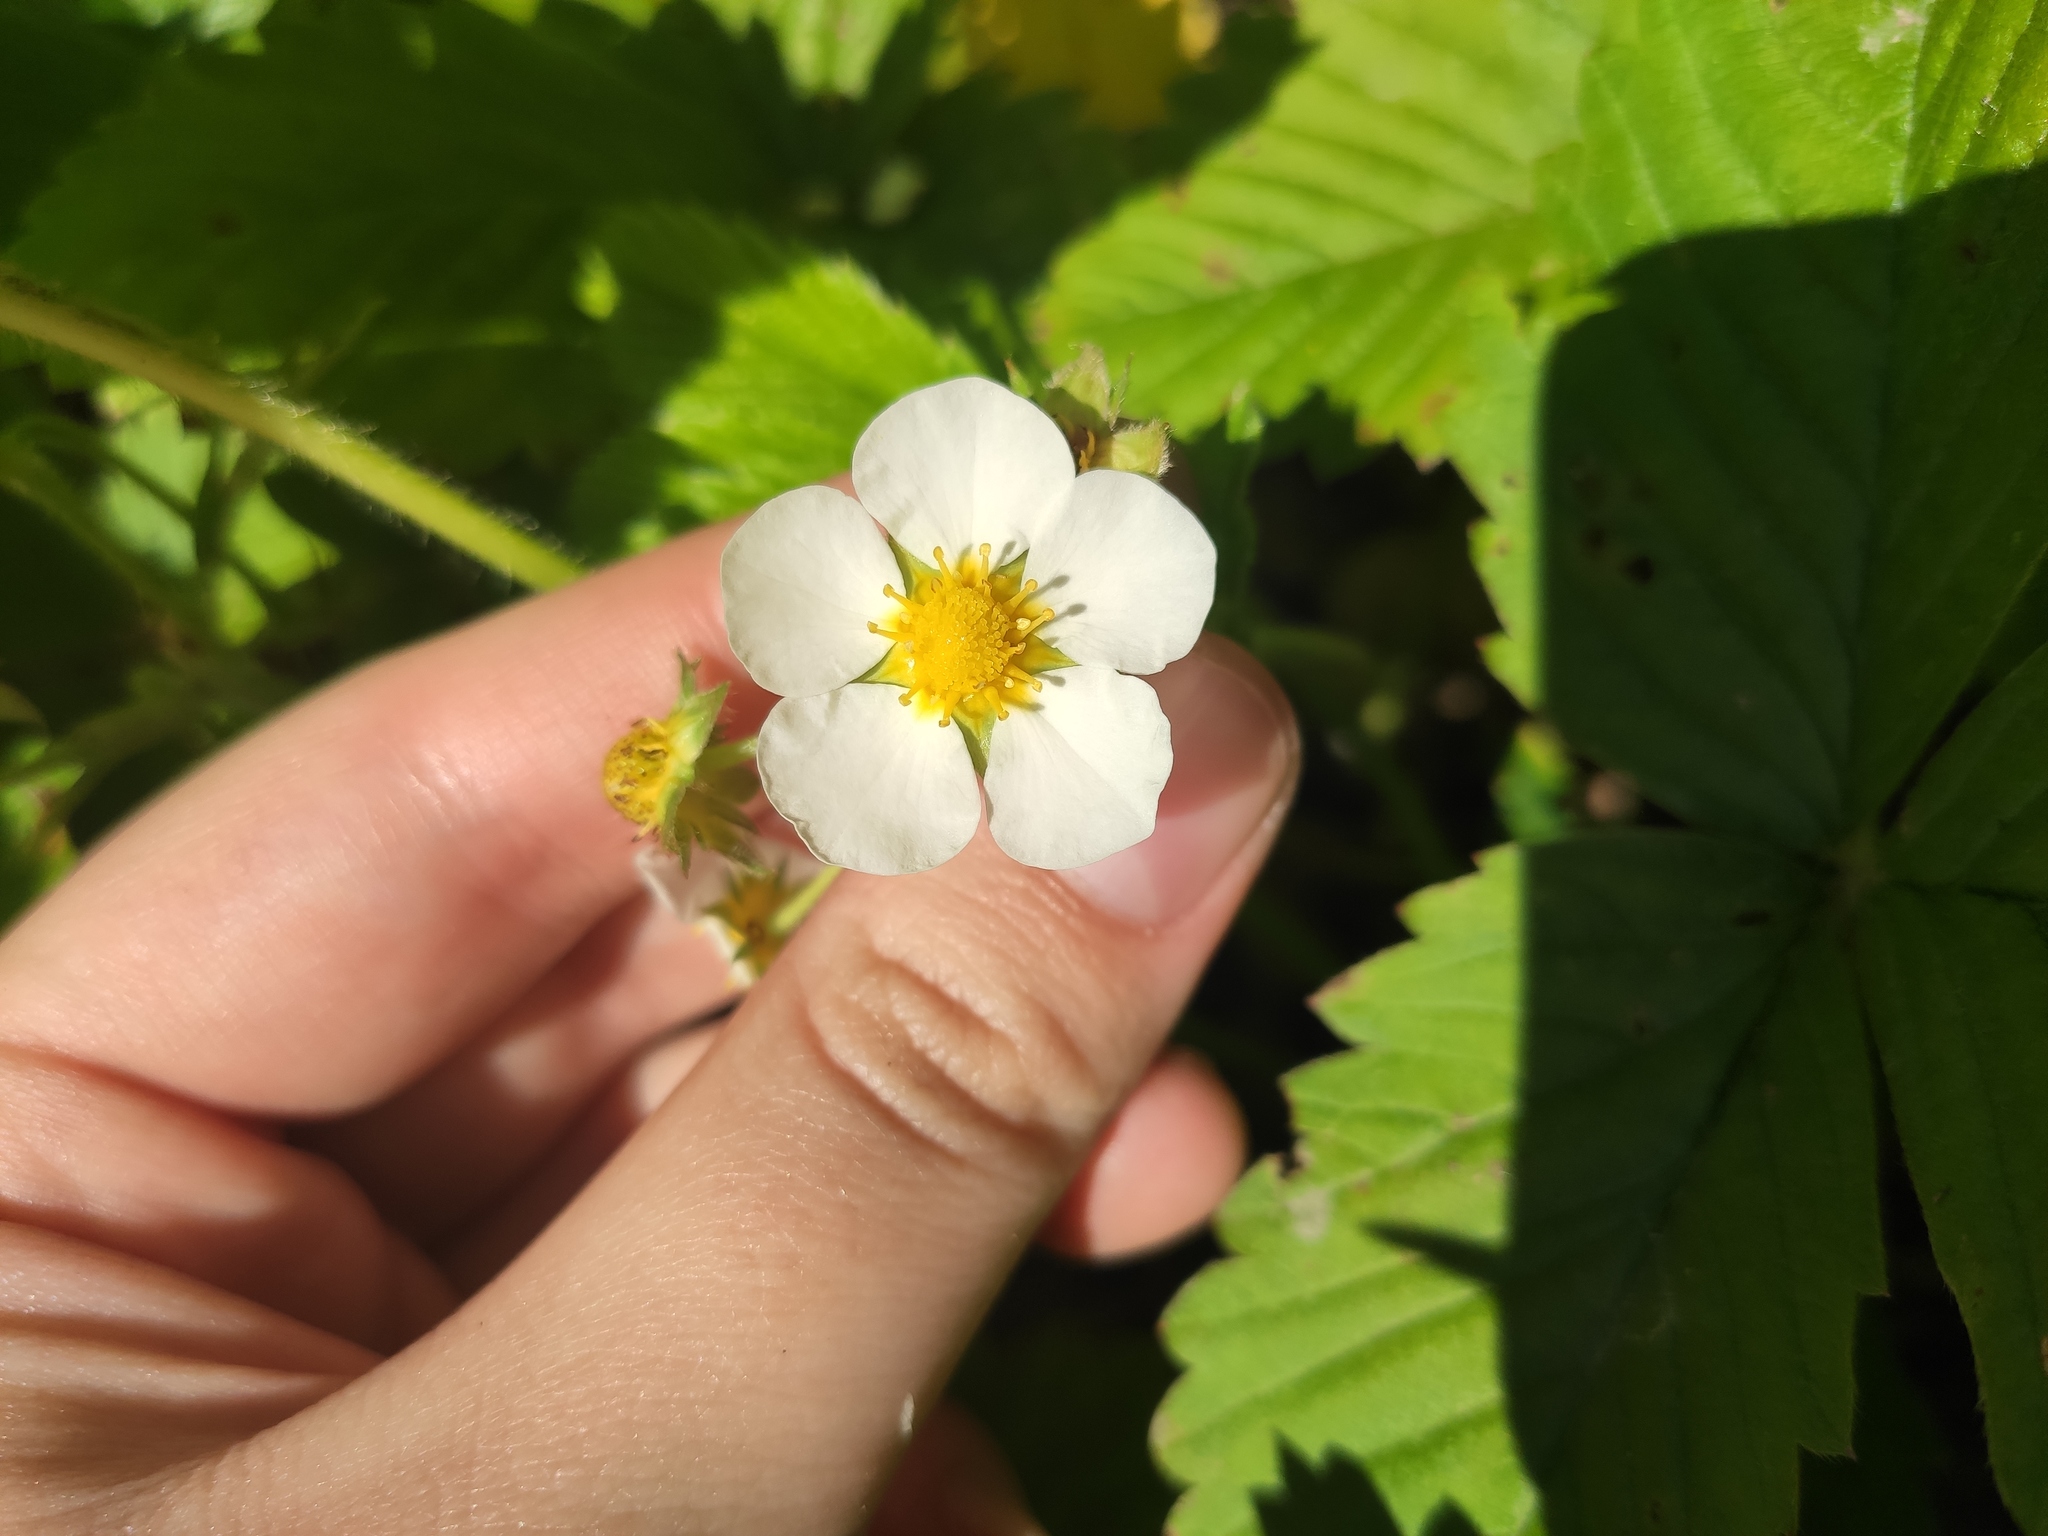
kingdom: Plantae
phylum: Tracheophyta
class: Magnoliopsida
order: Rosales
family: Rosaceae
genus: Fragaria
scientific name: Fragaria moschata
